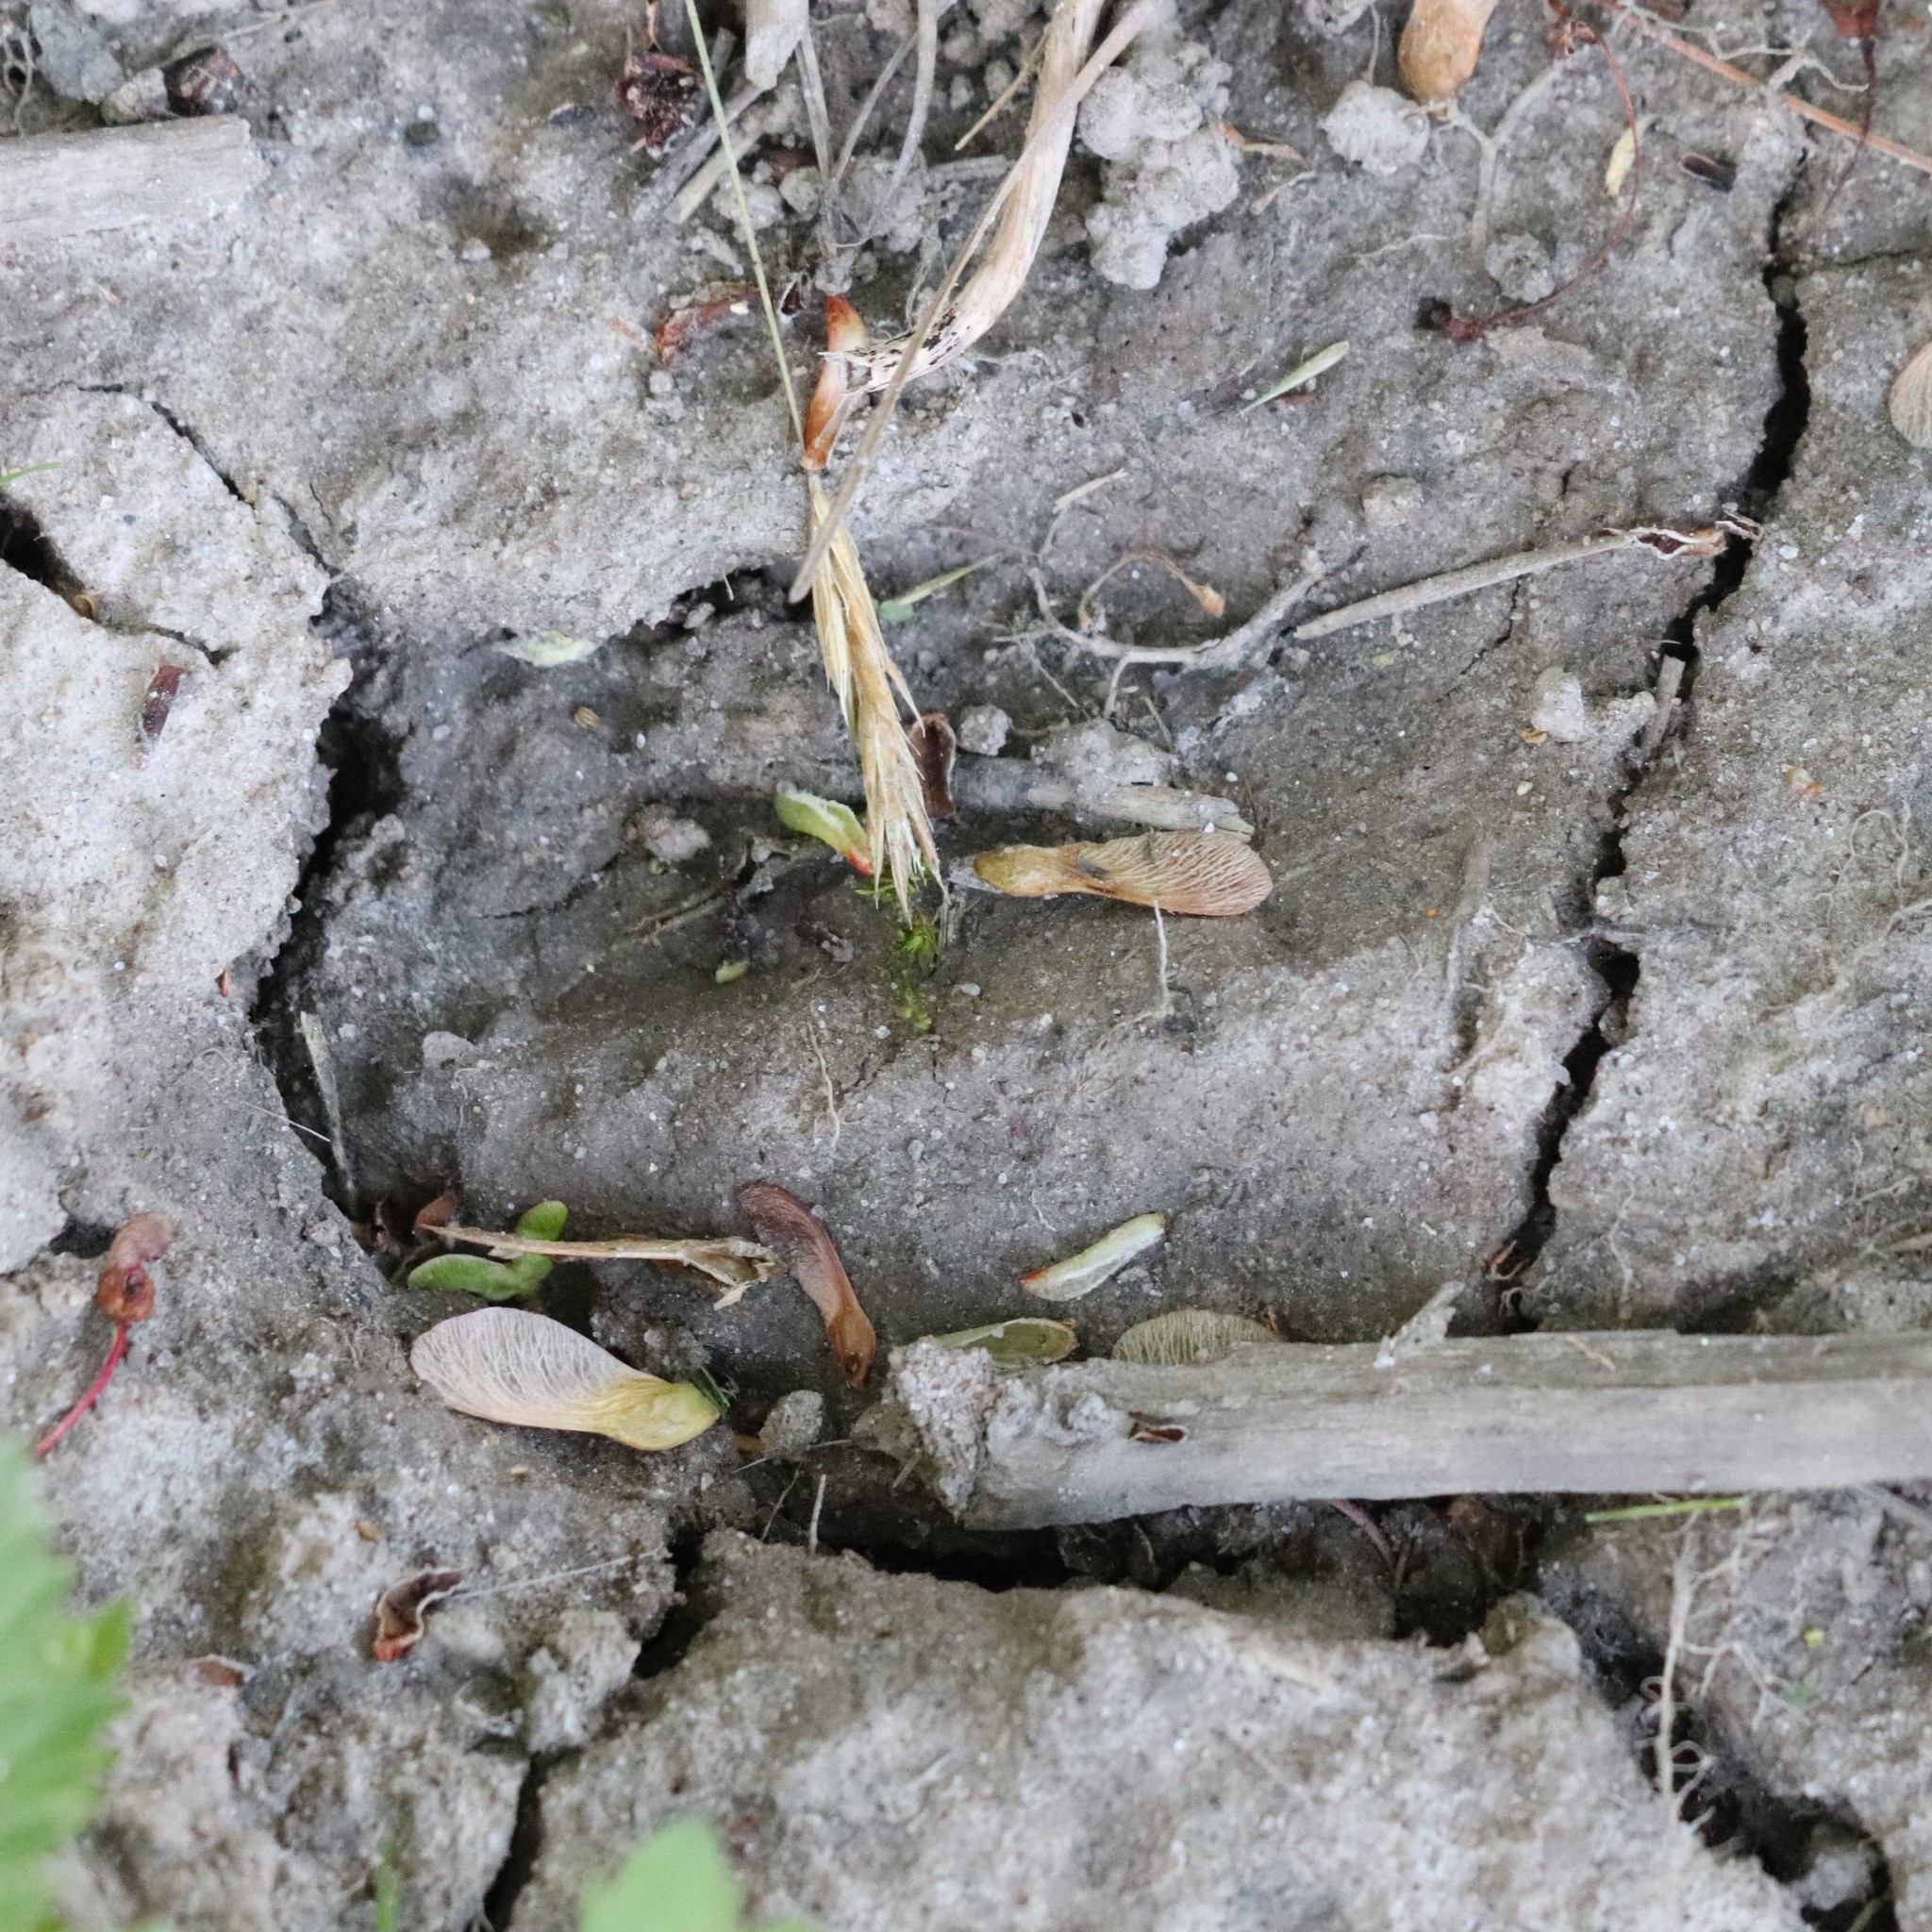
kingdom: Animalia
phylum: Chordata
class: Mammalia
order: Artiodactyla
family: Cervidae
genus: Odocoileus
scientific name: Odocoileus virginianus
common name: White-tailed deer
